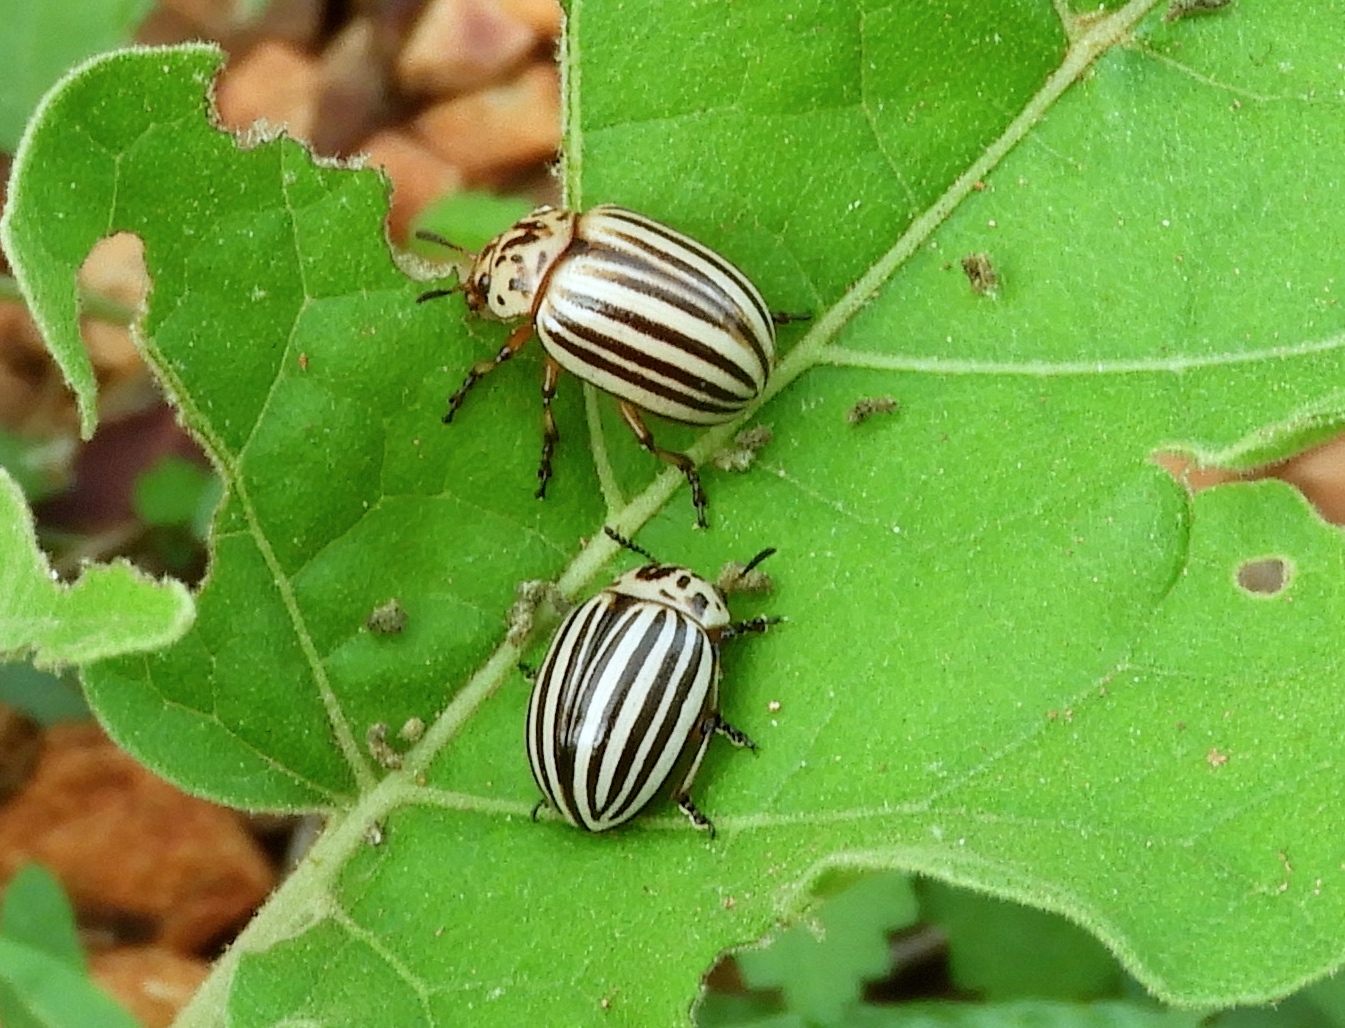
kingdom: Animalia
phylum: Arthropoda
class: Insecta
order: Coleoptera
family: Chrysomelidae
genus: Leptinotarsa
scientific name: Leptinotarsa decemlineata
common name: Colorado potato beetle
